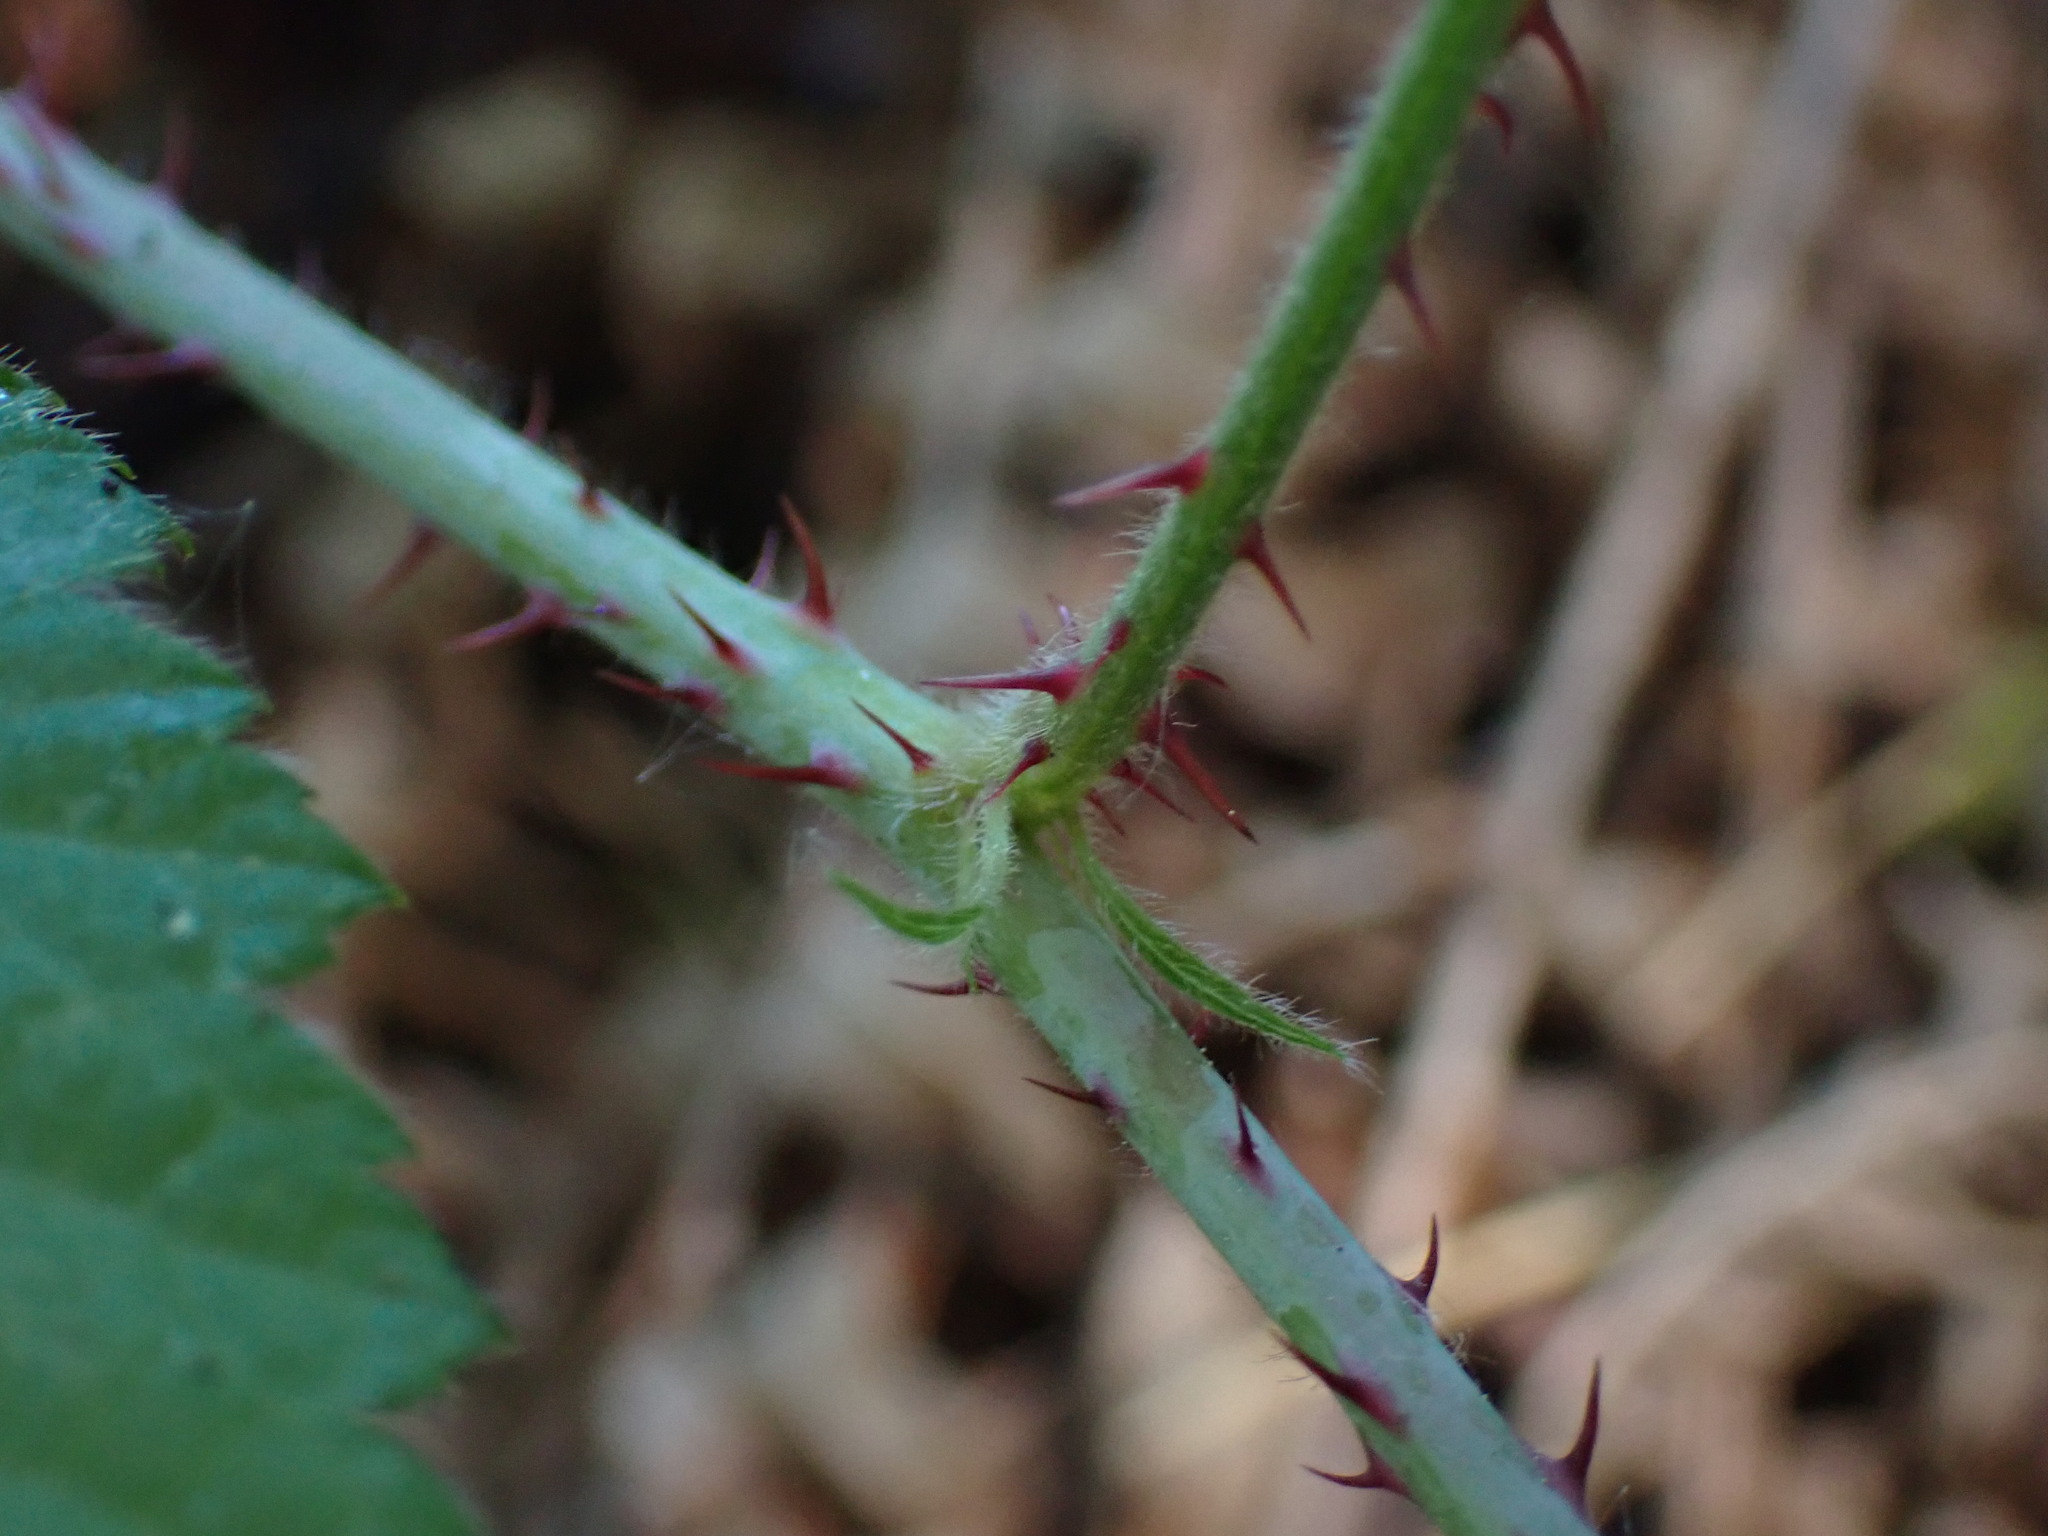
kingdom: Plantae
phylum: Tracheophyta
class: Magnoliopsida
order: Rosales
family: Rosaceae
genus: Rubus
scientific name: Rubus ursinus
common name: Pacific blackberry
